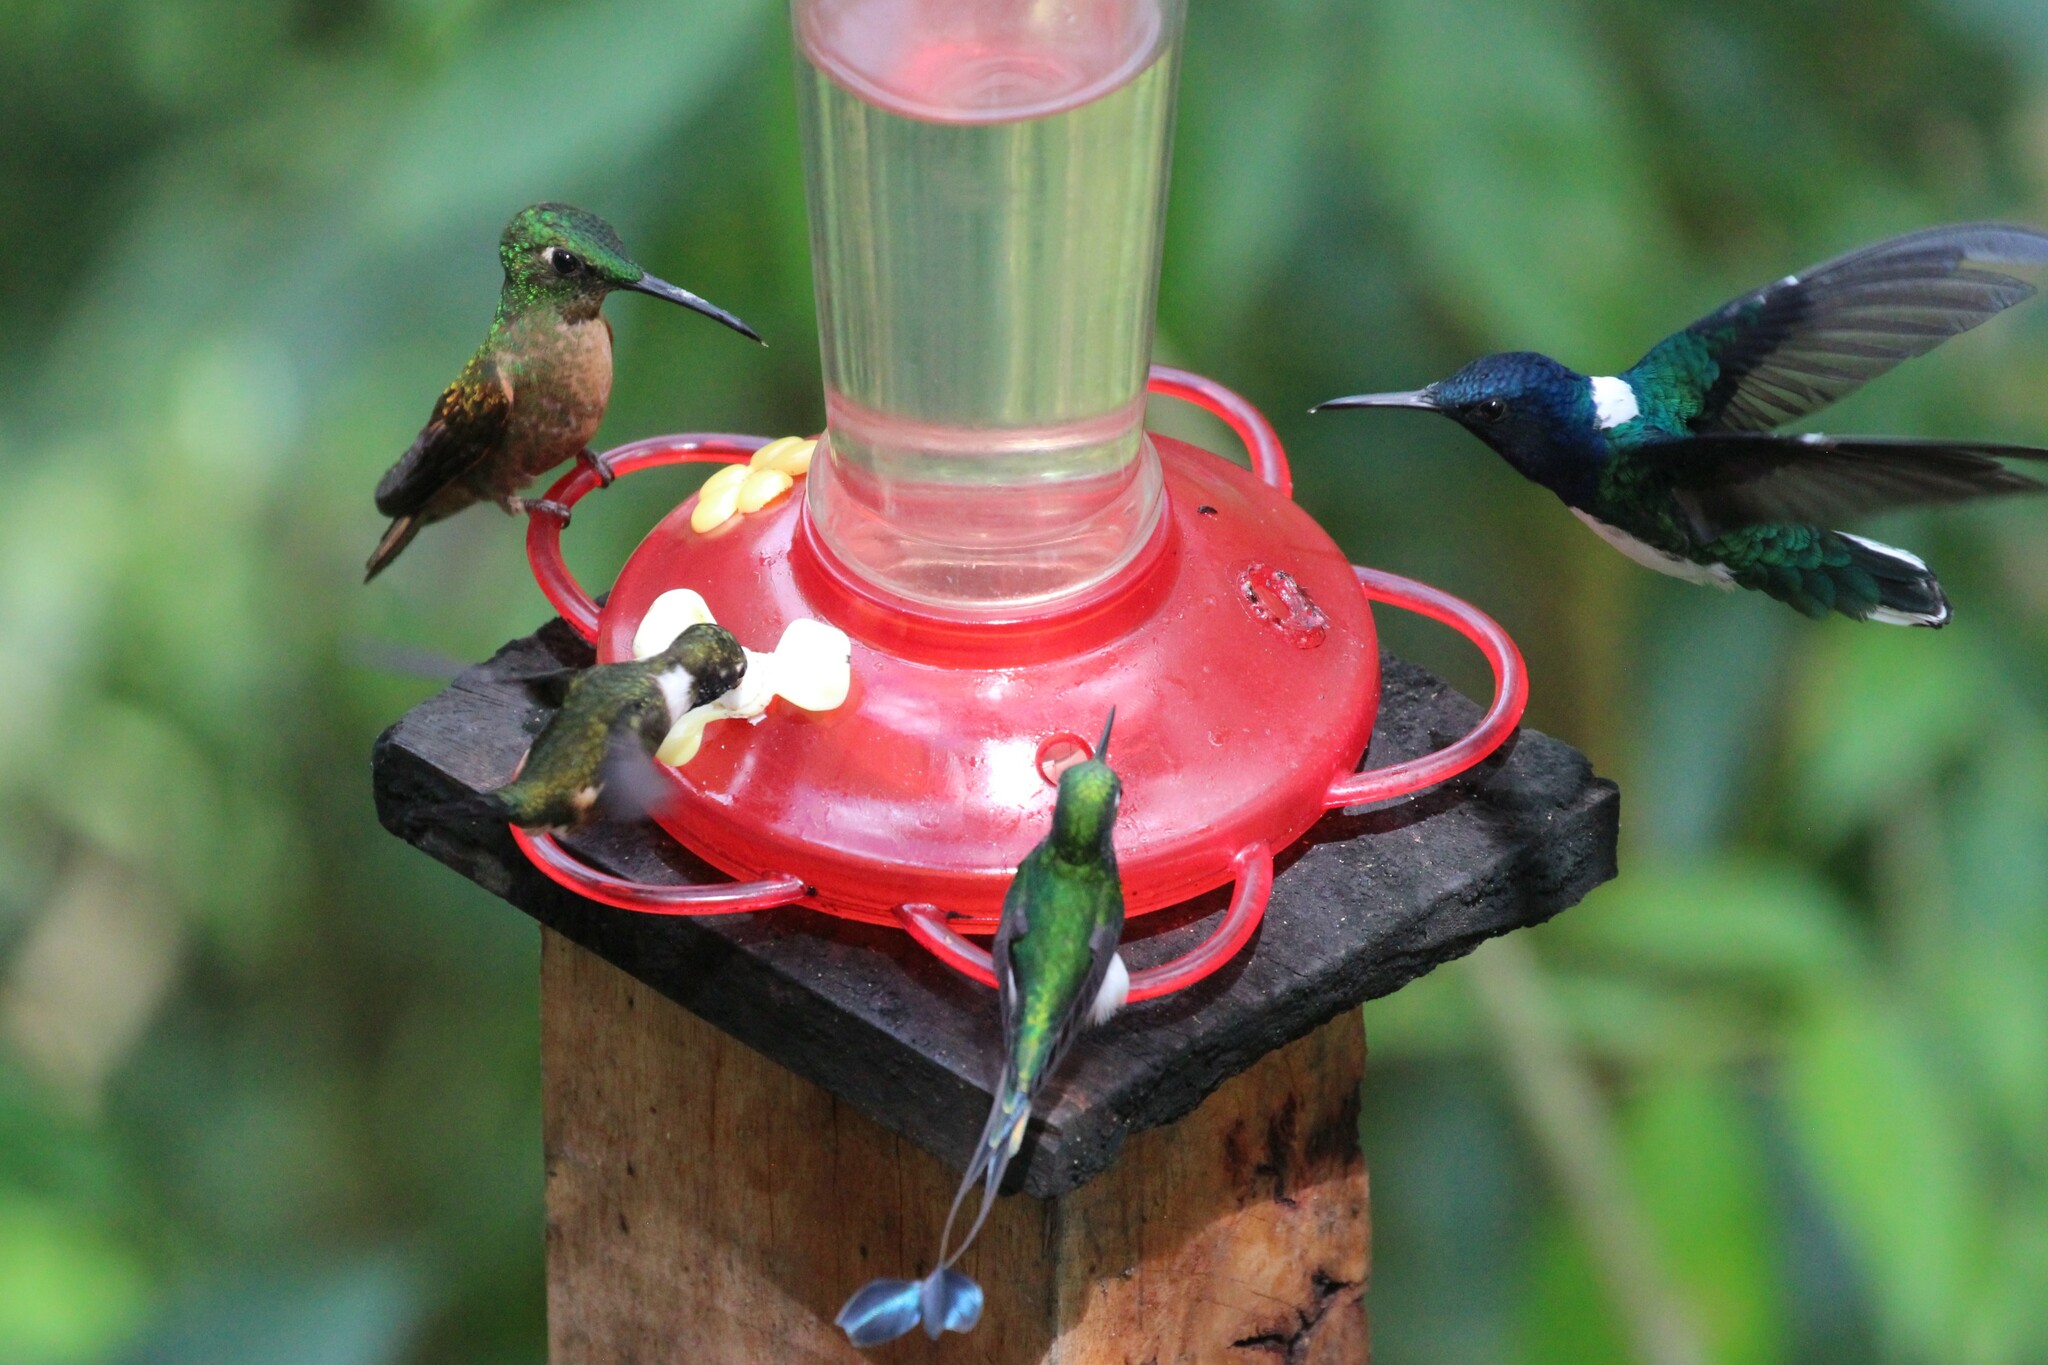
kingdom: Animalia
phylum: Chordata
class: Aves
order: Apodiformes
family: Trochilidae
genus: Florisuga
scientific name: Florisuga mellivora
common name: White-necked jacobin
